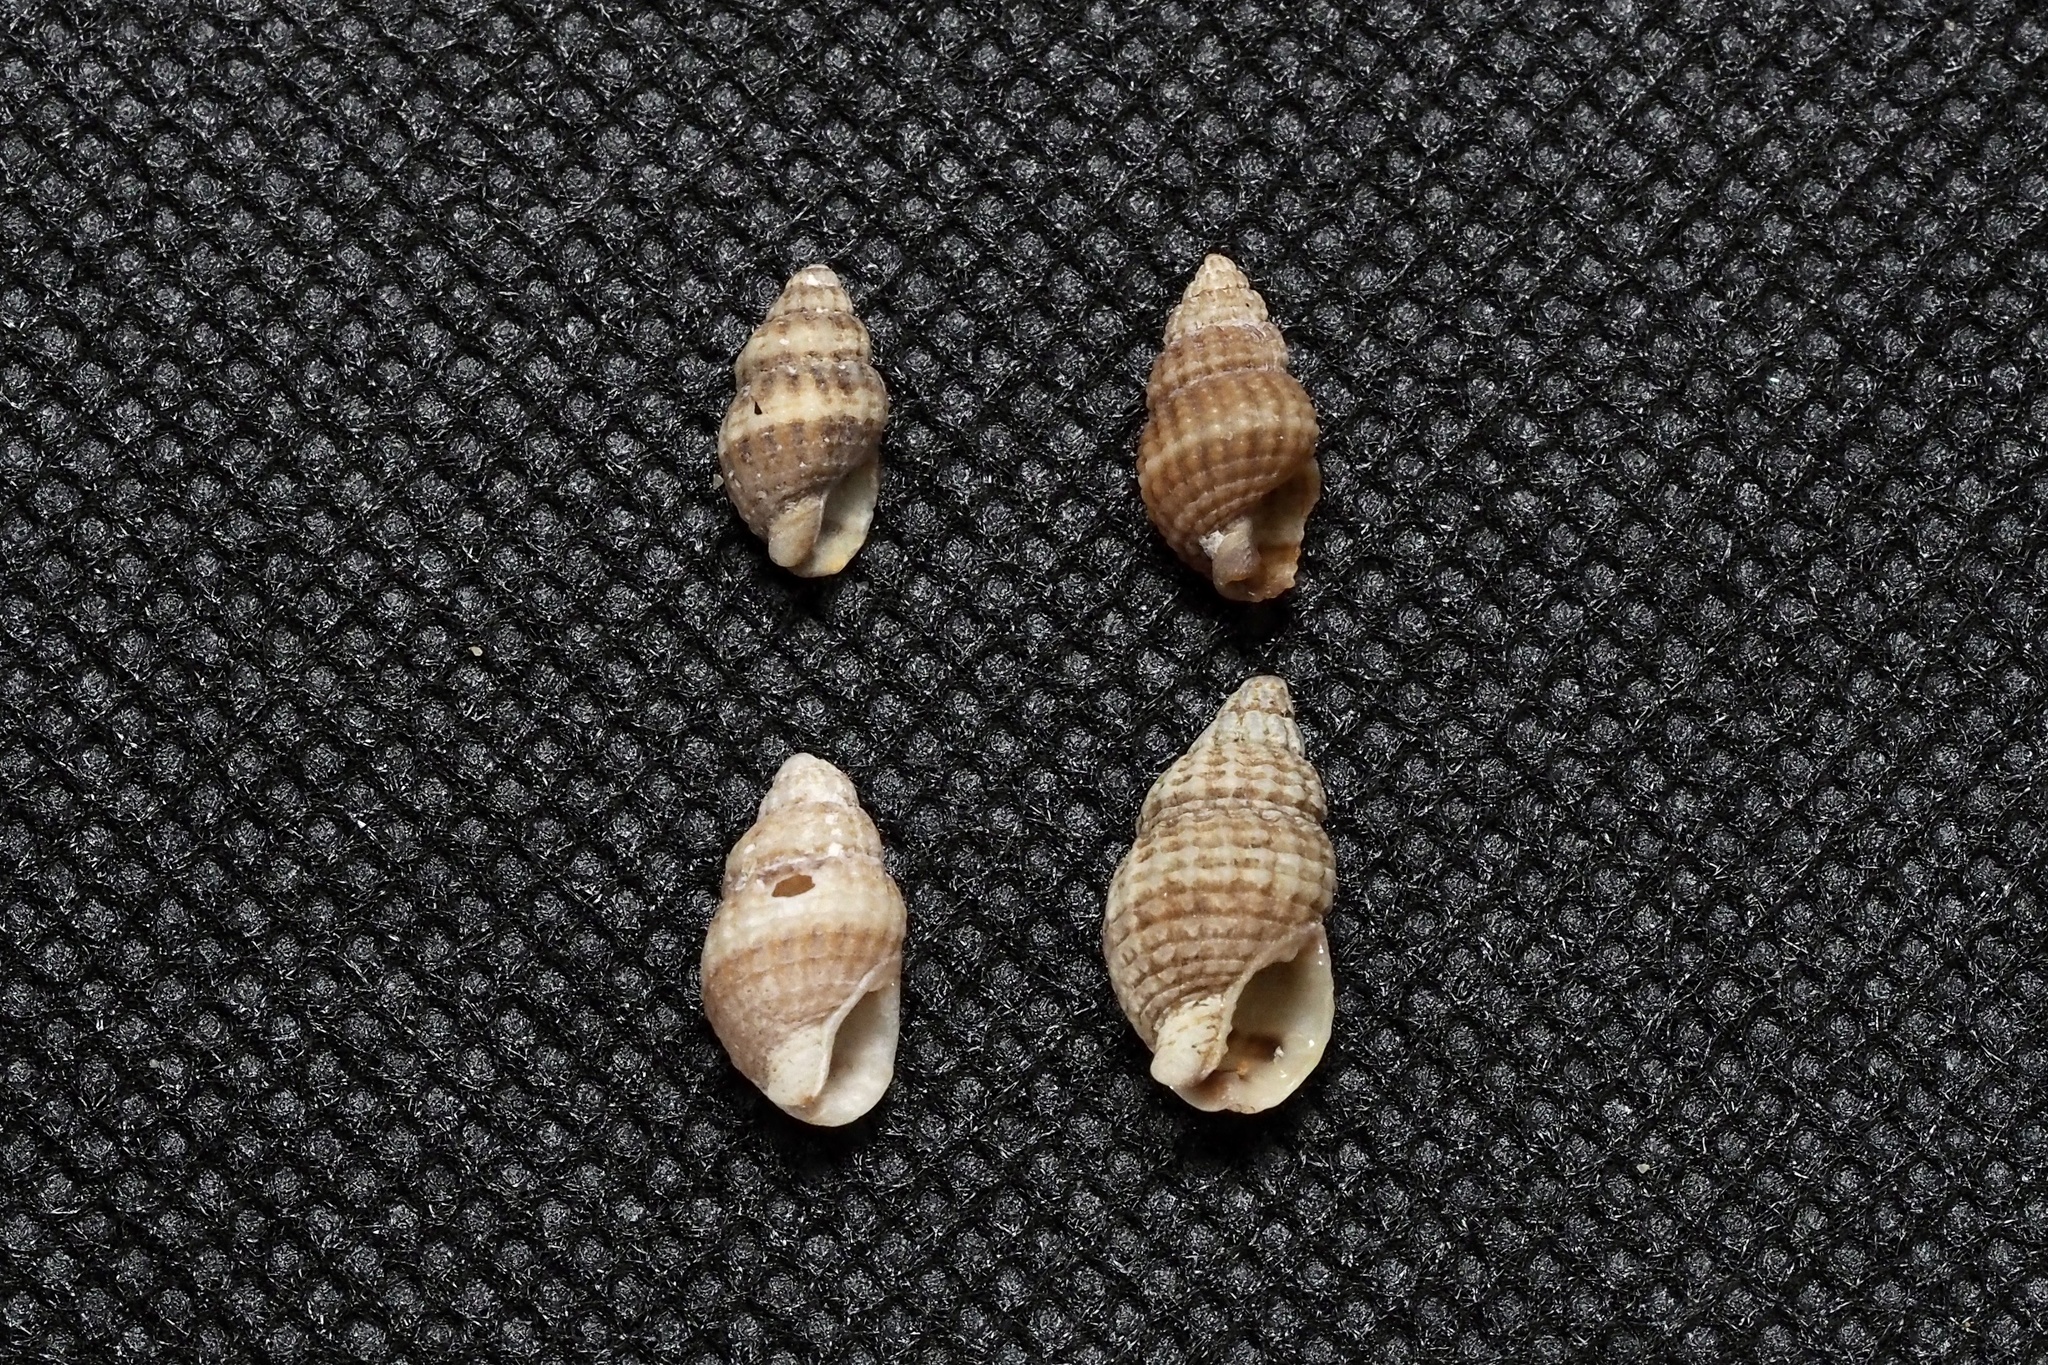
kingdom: Animalia
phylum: Mollusca
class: Gastropoda
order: Neogastropoda
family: Nassariidae
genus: Nassarius
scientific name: Nassarius multigranosus
